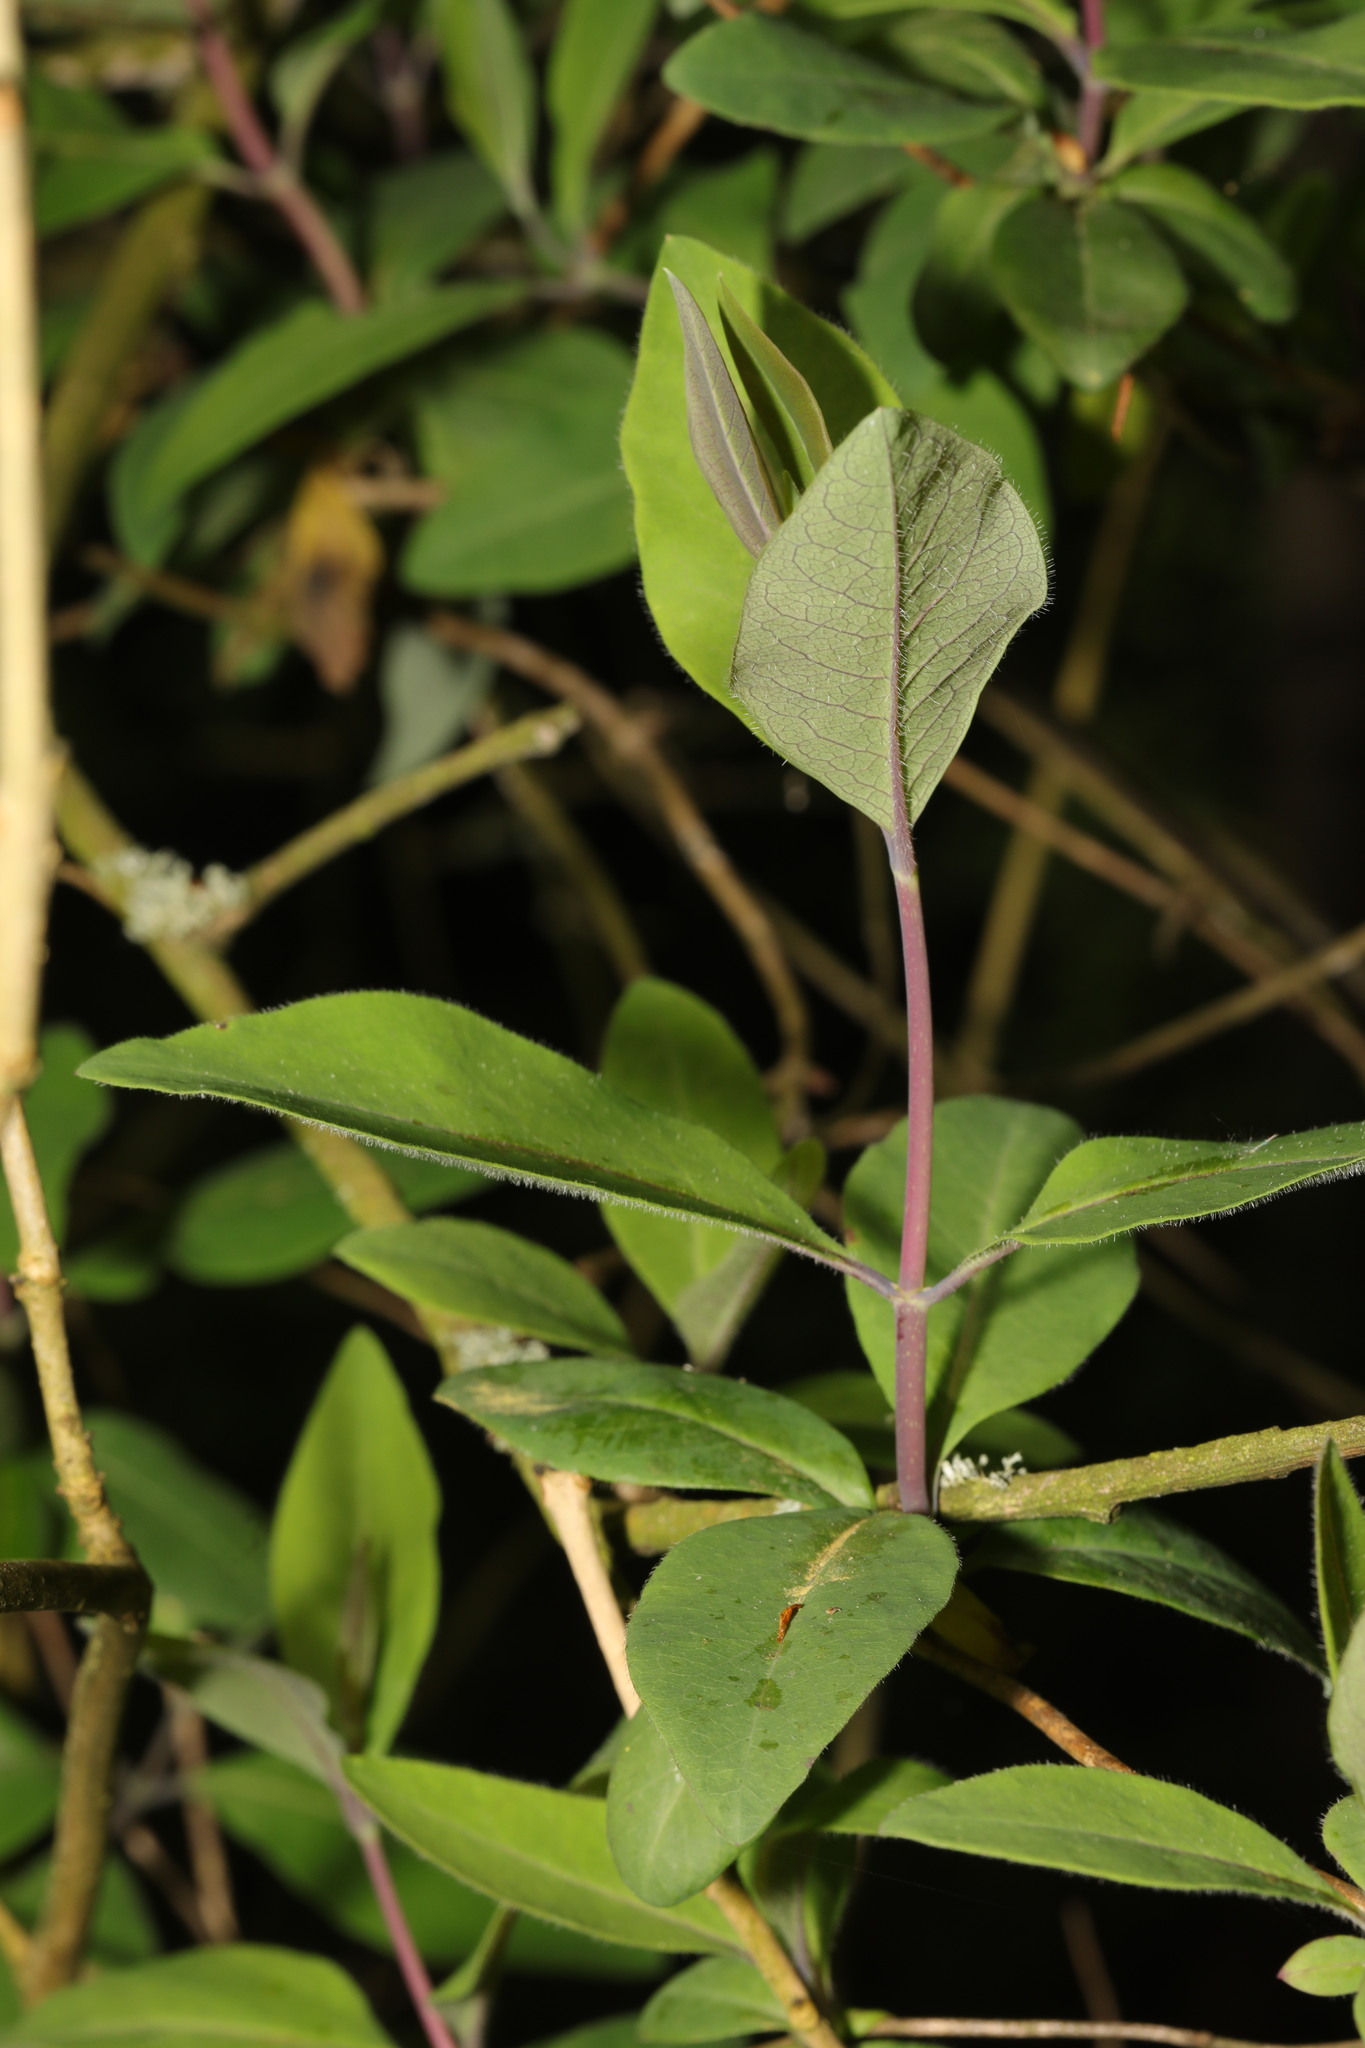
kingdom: Plantae
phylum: Tracheophyta
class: Magnoliopsida
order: Dipsacales
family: Caprifoliaceae
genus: Lonicera
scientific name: Lonicera periclymenum
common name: European honeysuckle
